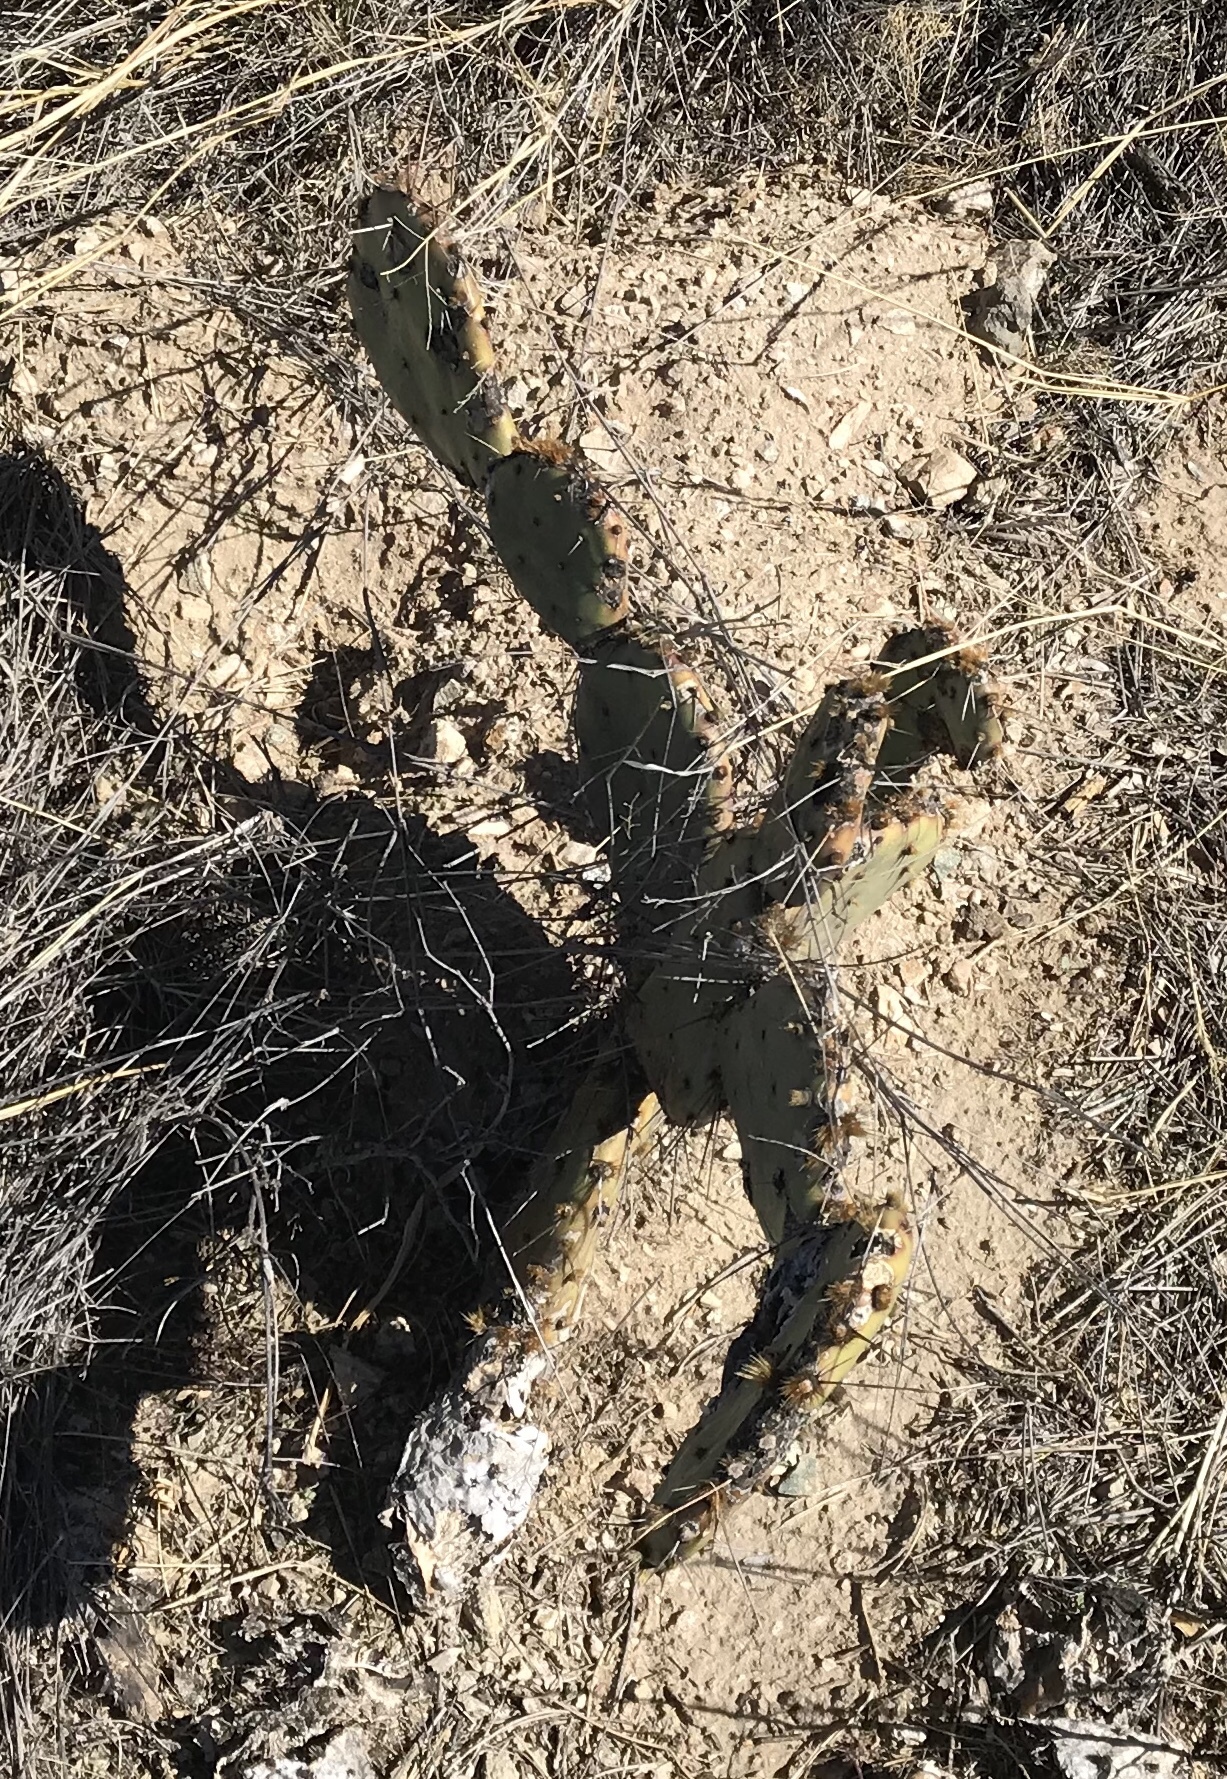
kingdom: Plantae
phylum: Tracheophyta
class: Magnoliopsida
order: Caryophyllales
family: Cactaceae
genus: Opuntia
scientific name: Opuntia phaeacantha
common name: New mexico prickly-pear
